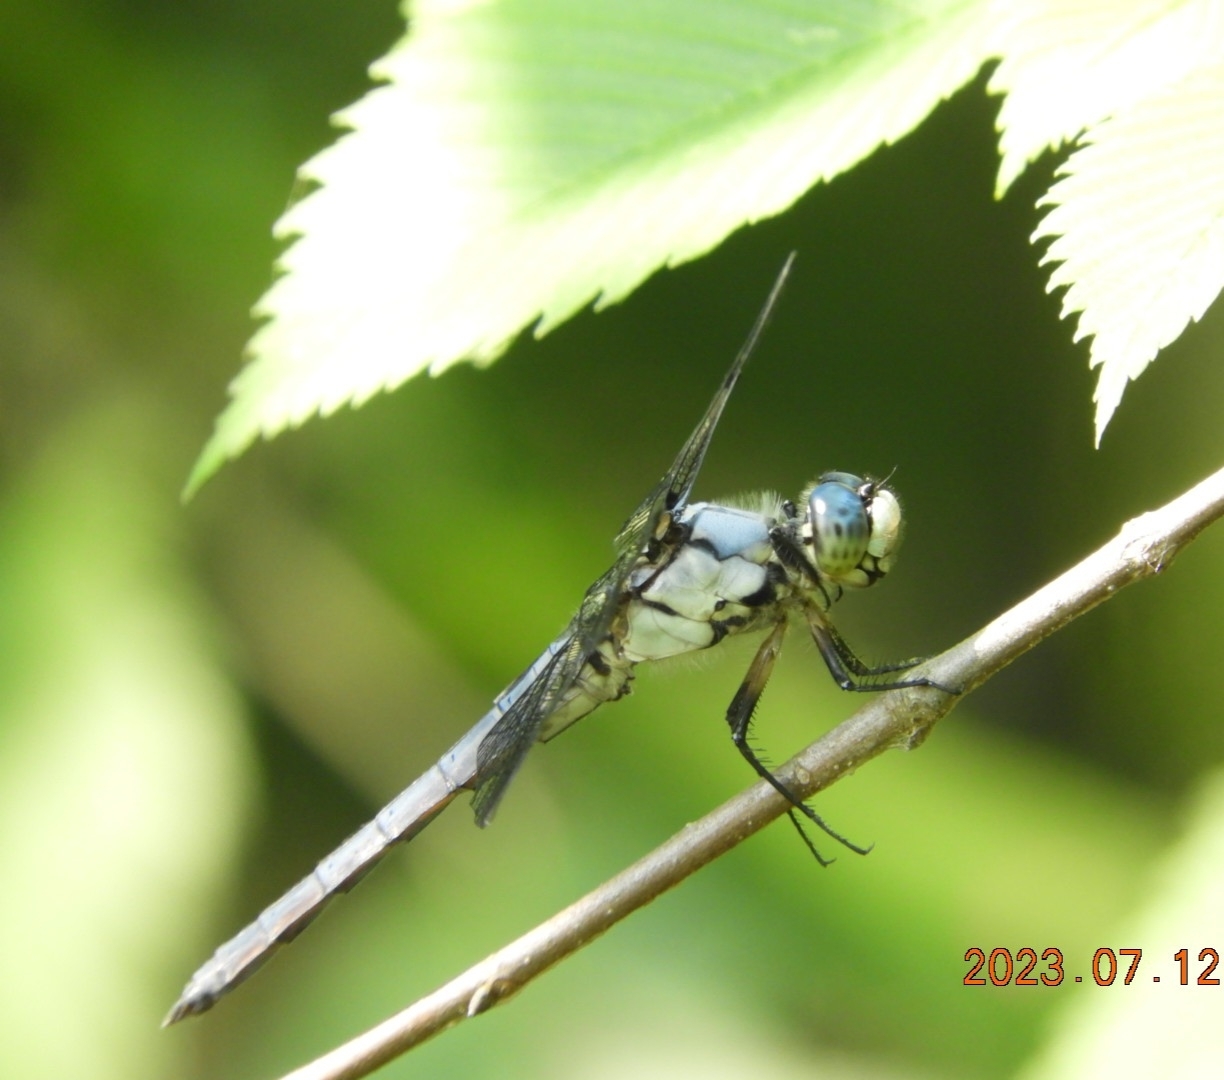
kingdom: Animalia
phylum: Arthropoda
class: Insecta
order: Odonata
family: Libellulidae
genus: Libellula
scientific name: Libellula vibrans
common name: Great blue skimmer
